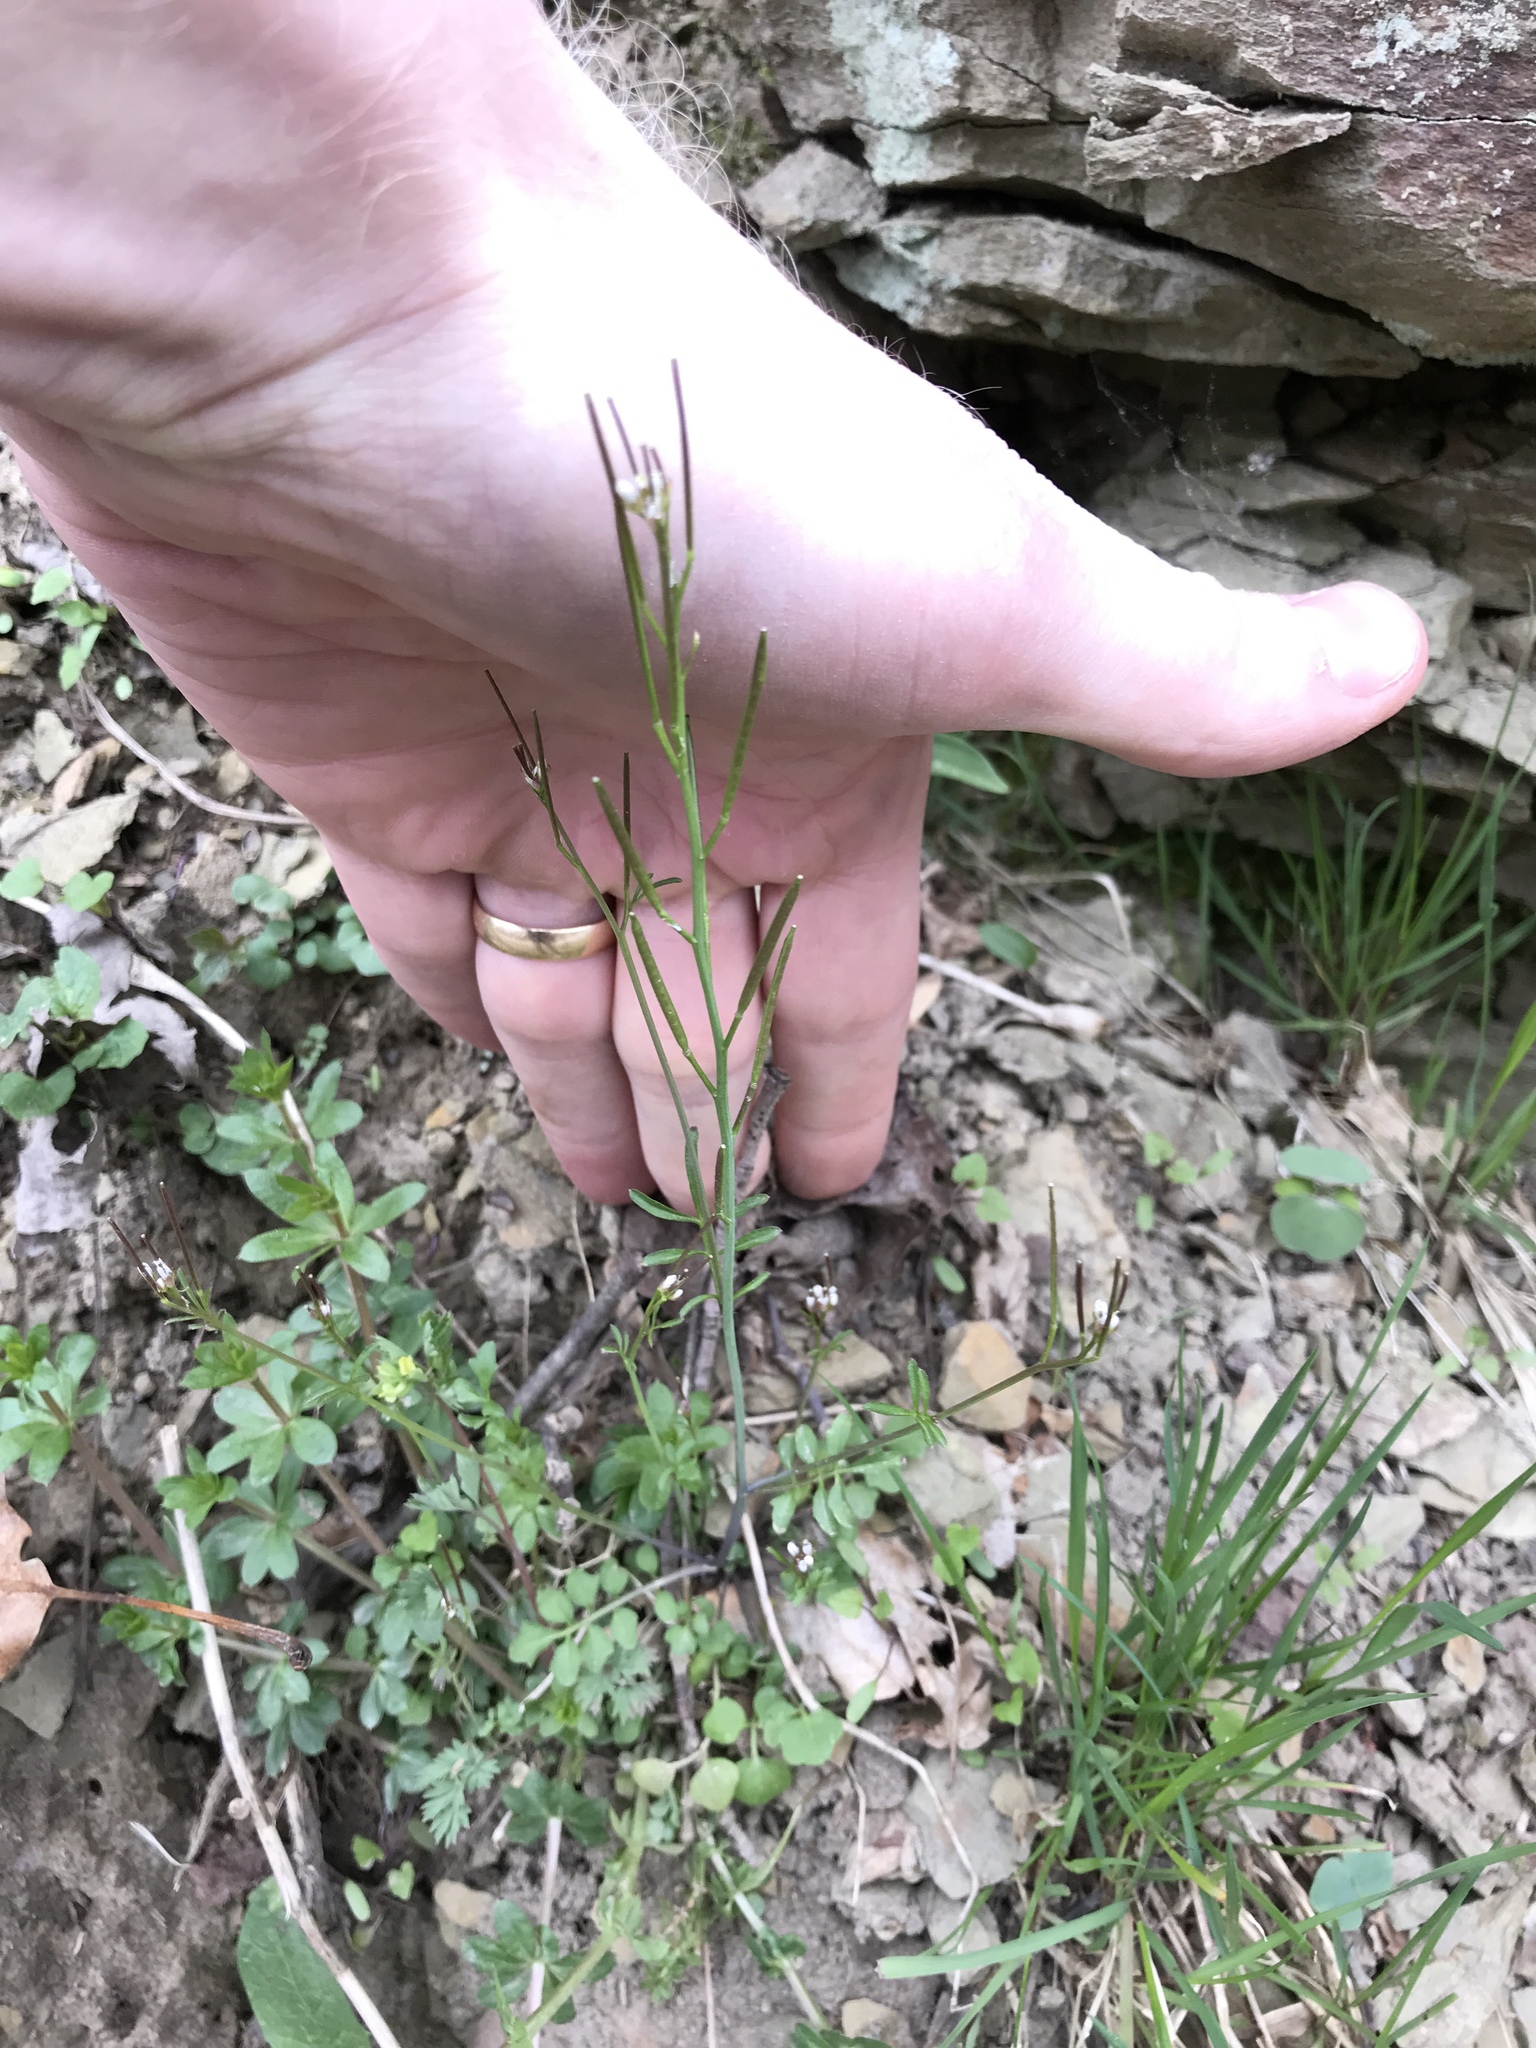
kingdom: Plantae
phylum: Tracheophyta
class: Magnoliopsida
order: Brassicales
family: Brassicaceae
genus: Cardamine
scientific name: Cardamine hirsuta
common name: Hairy bittercress
